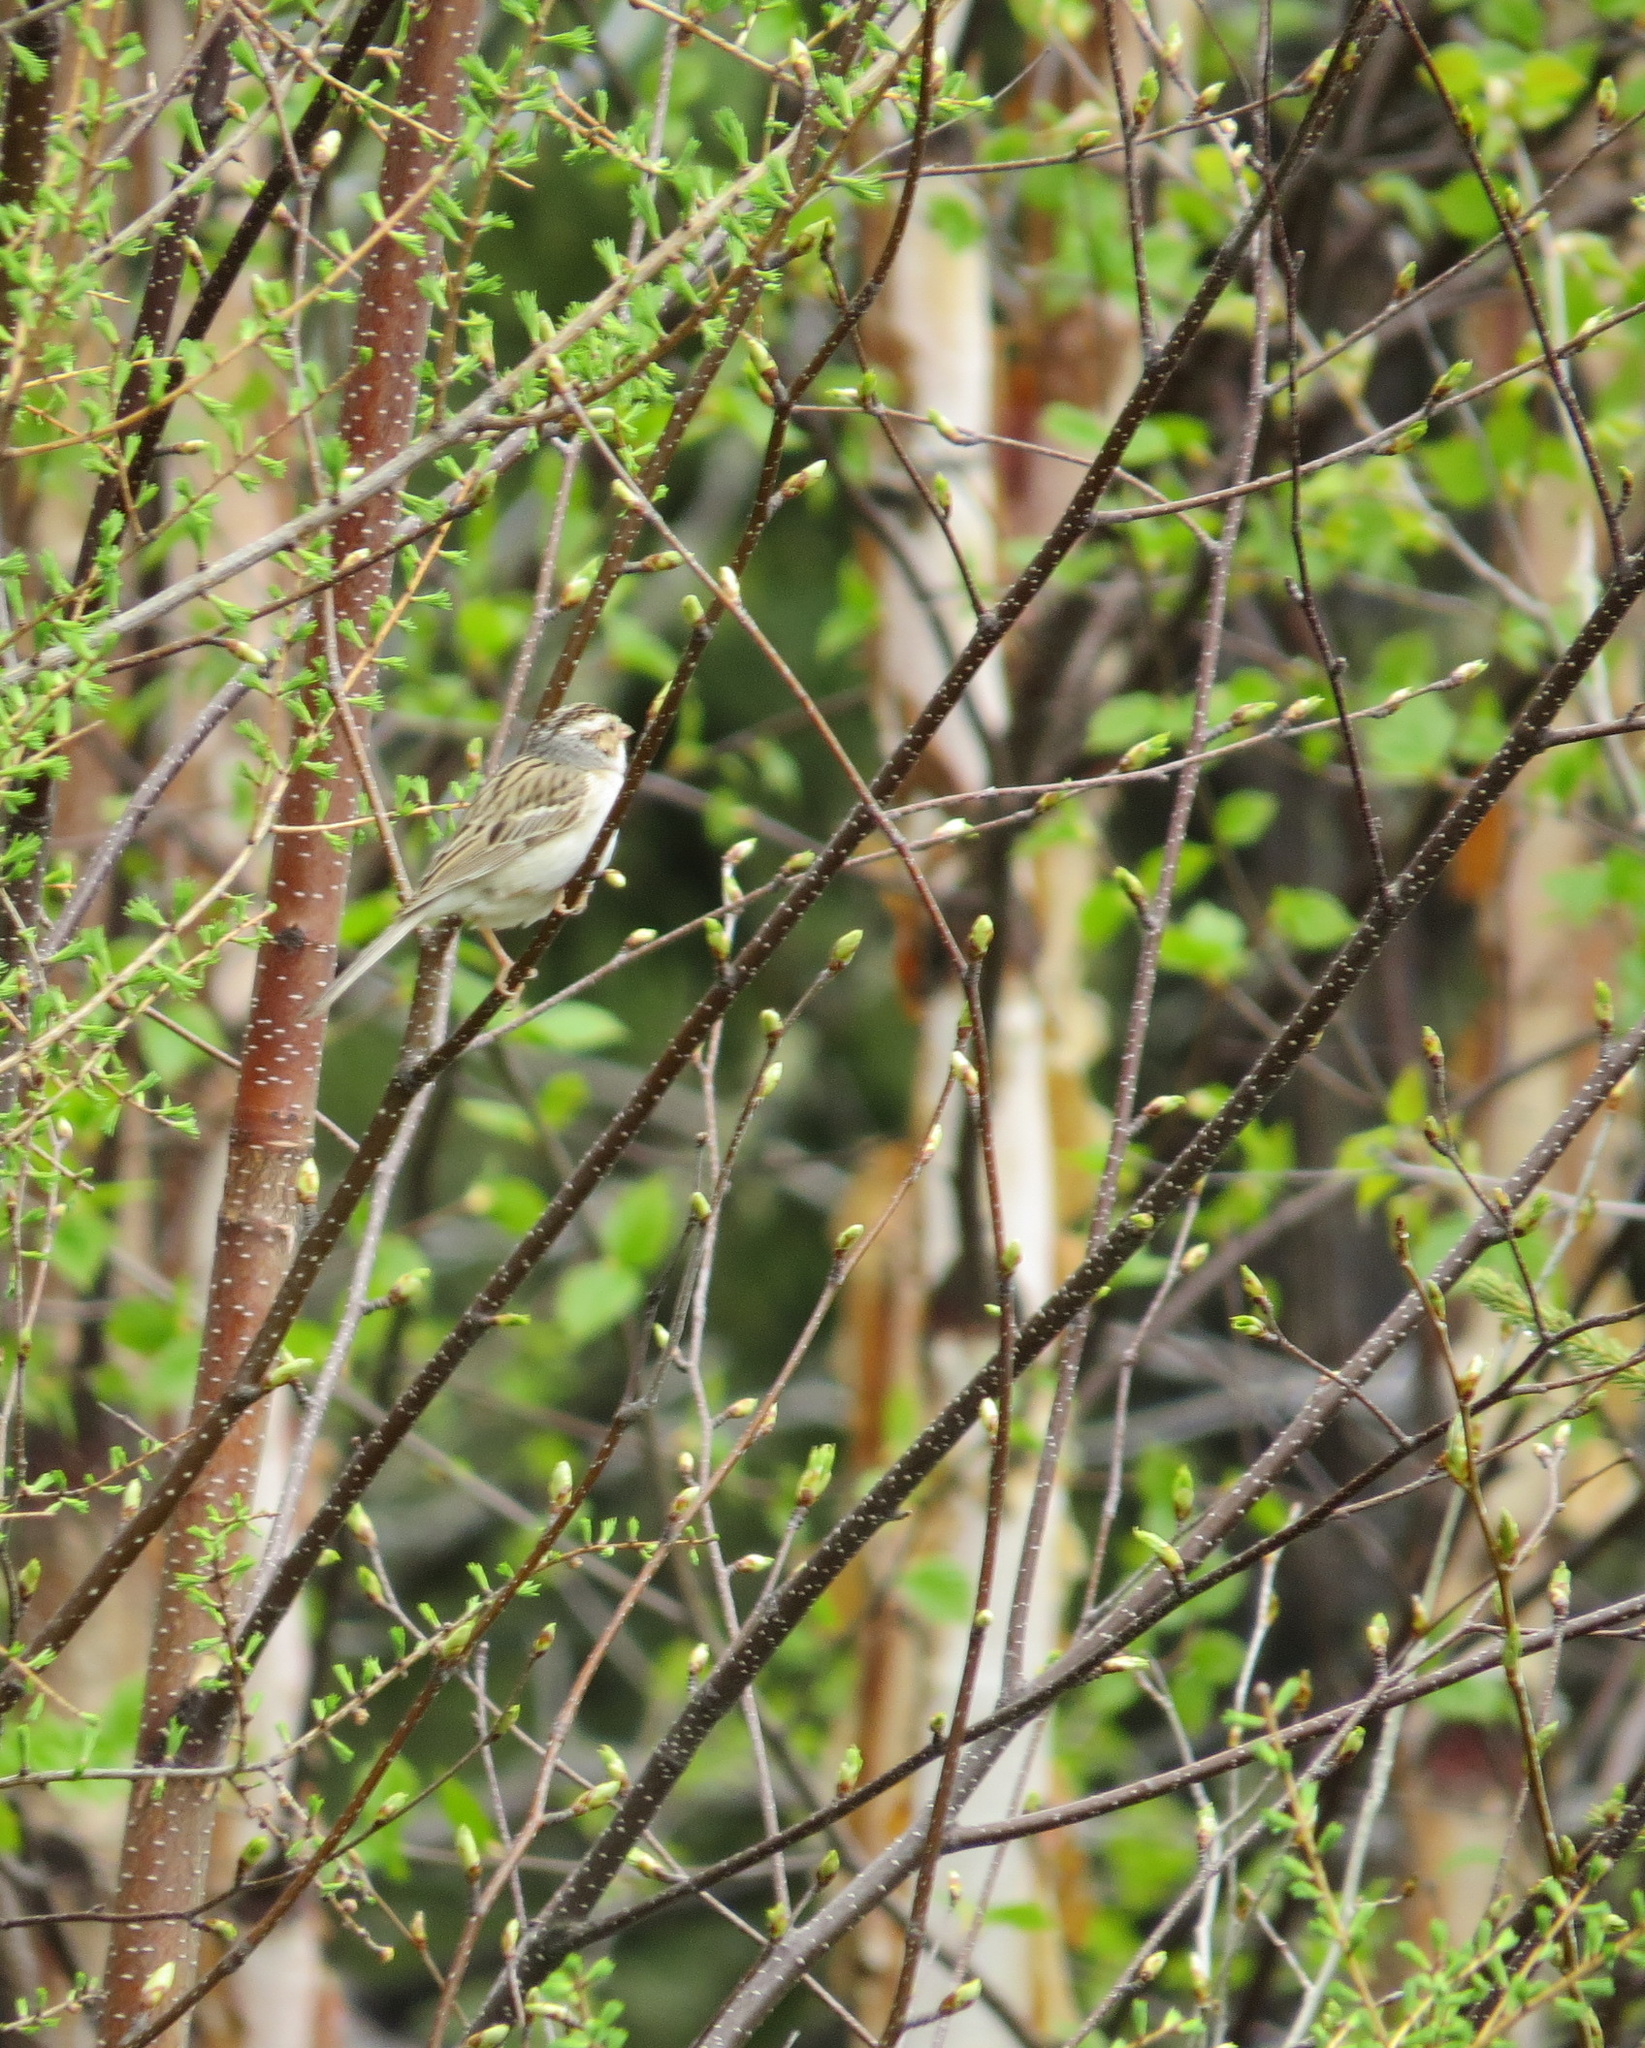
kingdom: Animalia
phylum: Chordata
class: Aves
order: Passeriformes
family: Passerellidae
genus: Spizella
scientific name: Spizella pallida
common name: Clay-colored sparrow
